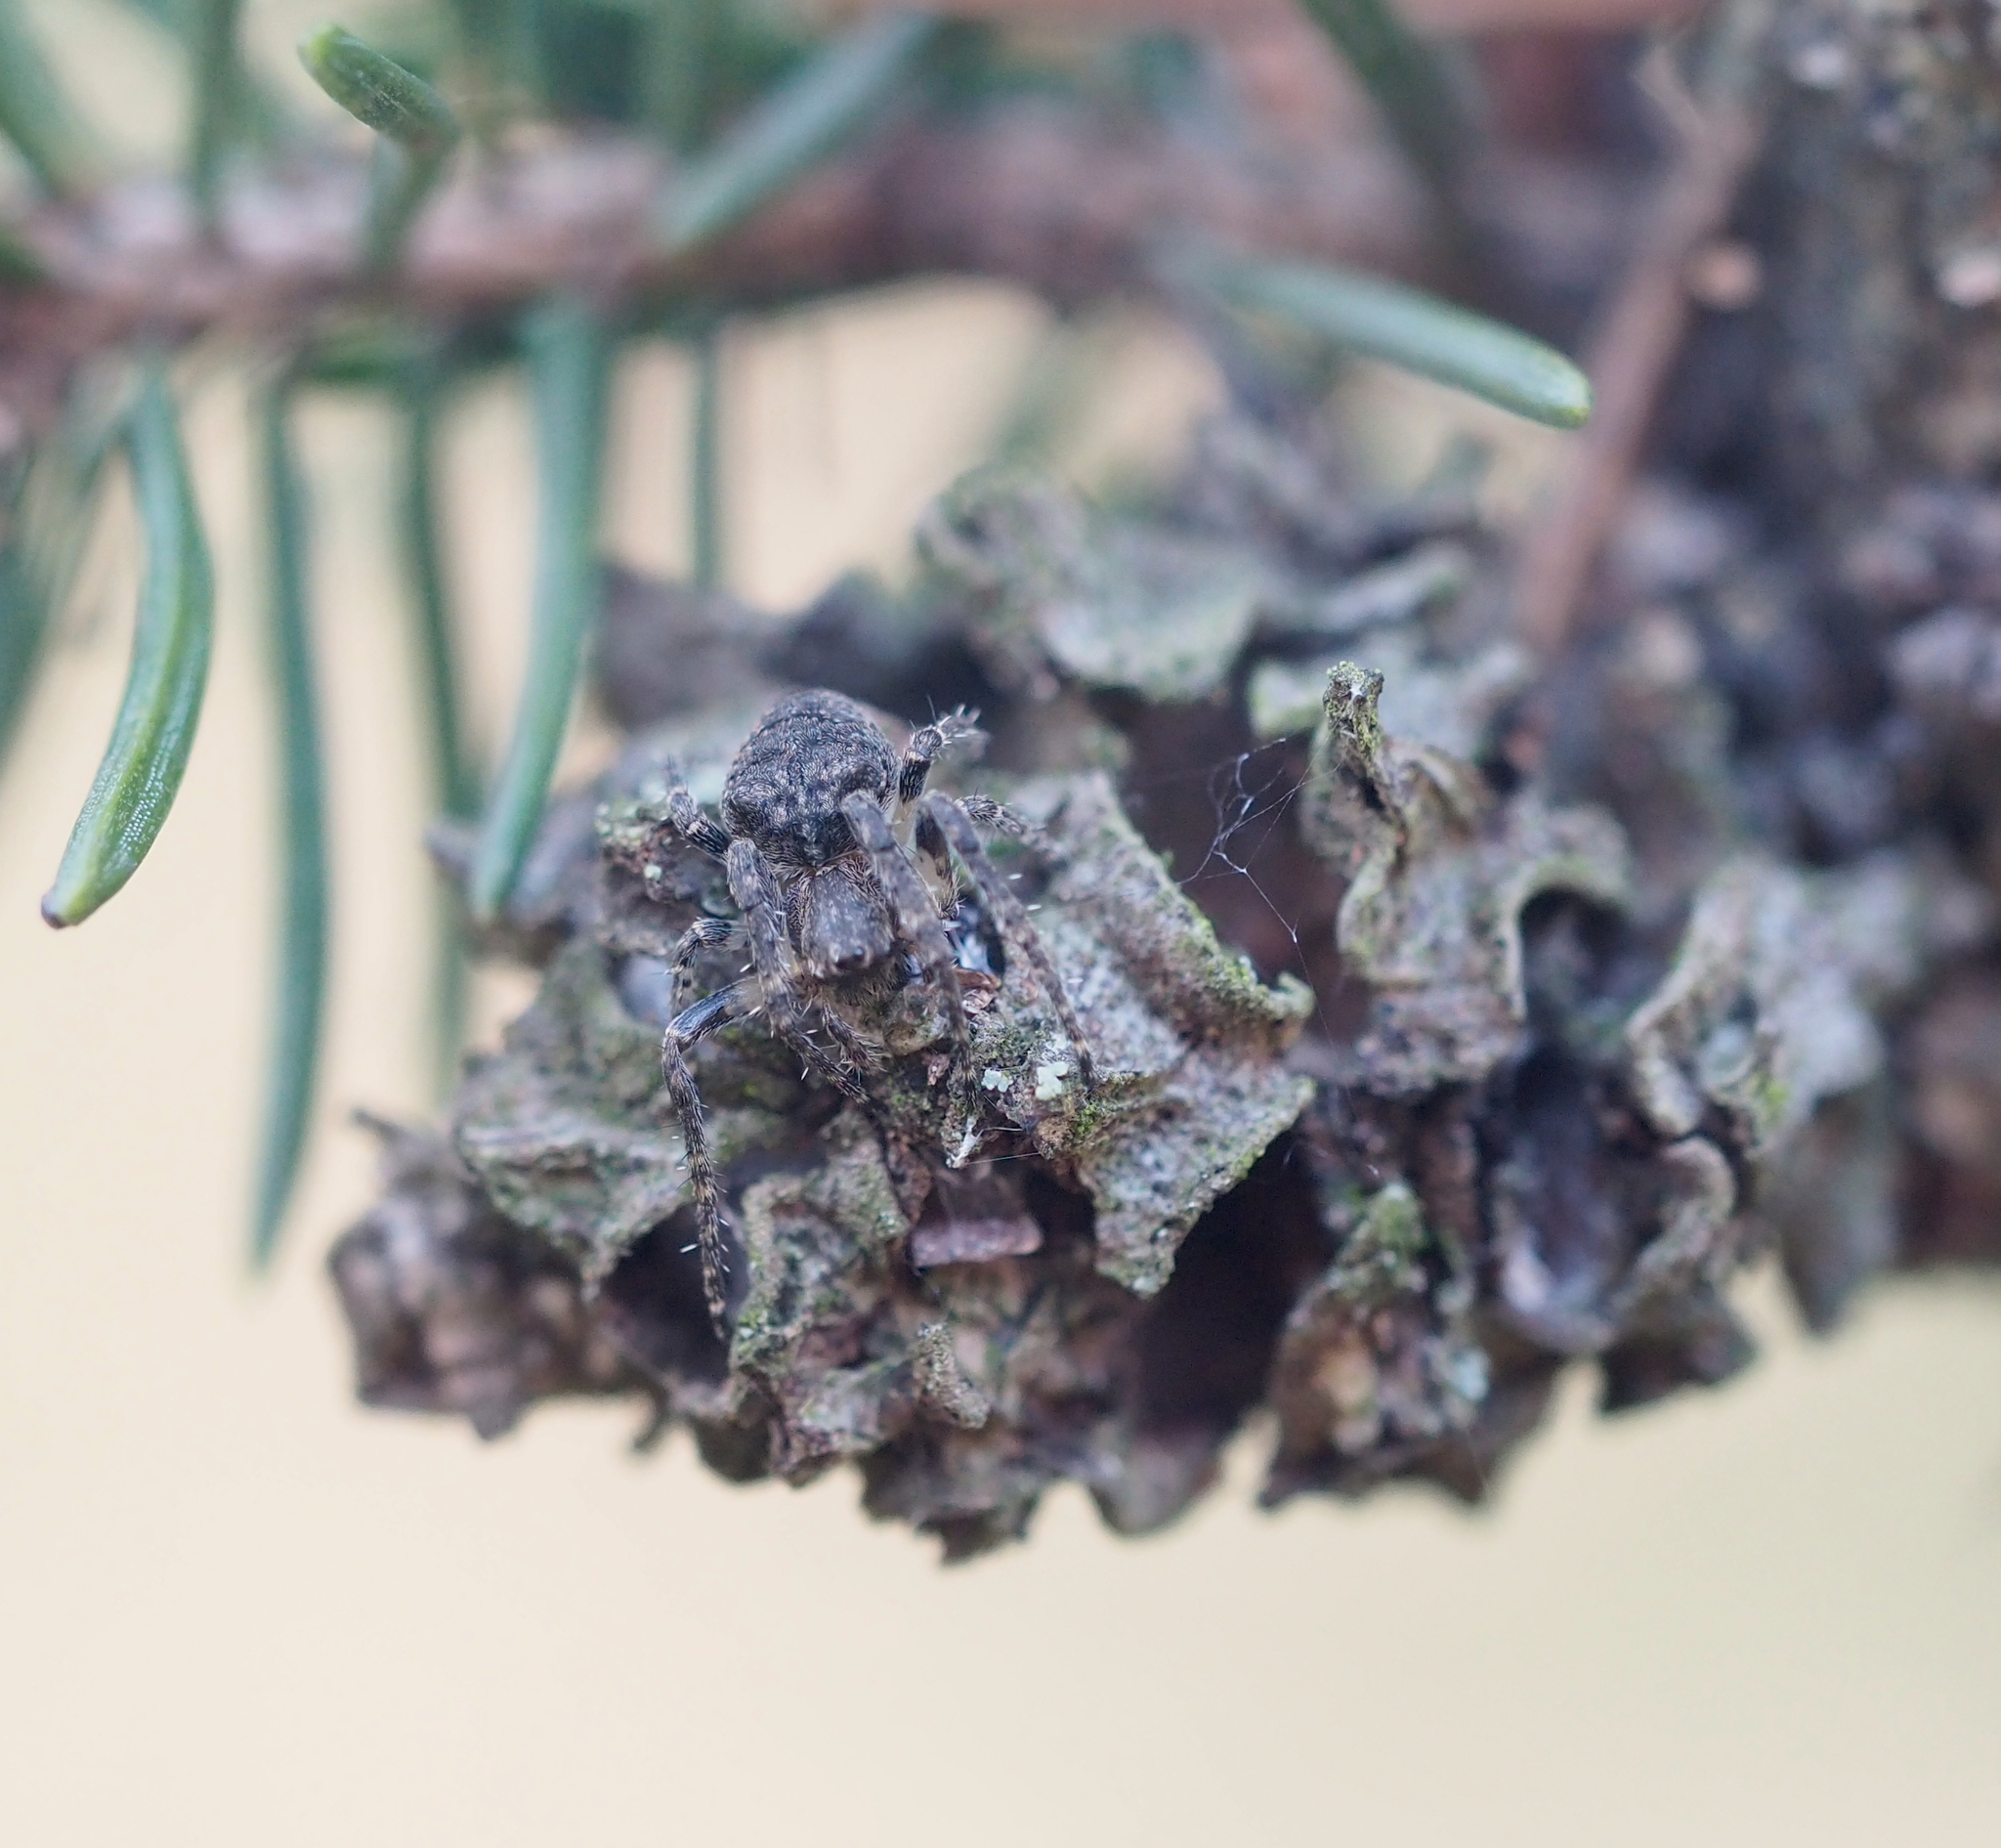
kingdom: Animalia
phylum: Arthropoda
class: Arachnida
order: Araneae
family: Araneidae
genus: Gibbaranea
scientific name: Gibbaranea omoeda
